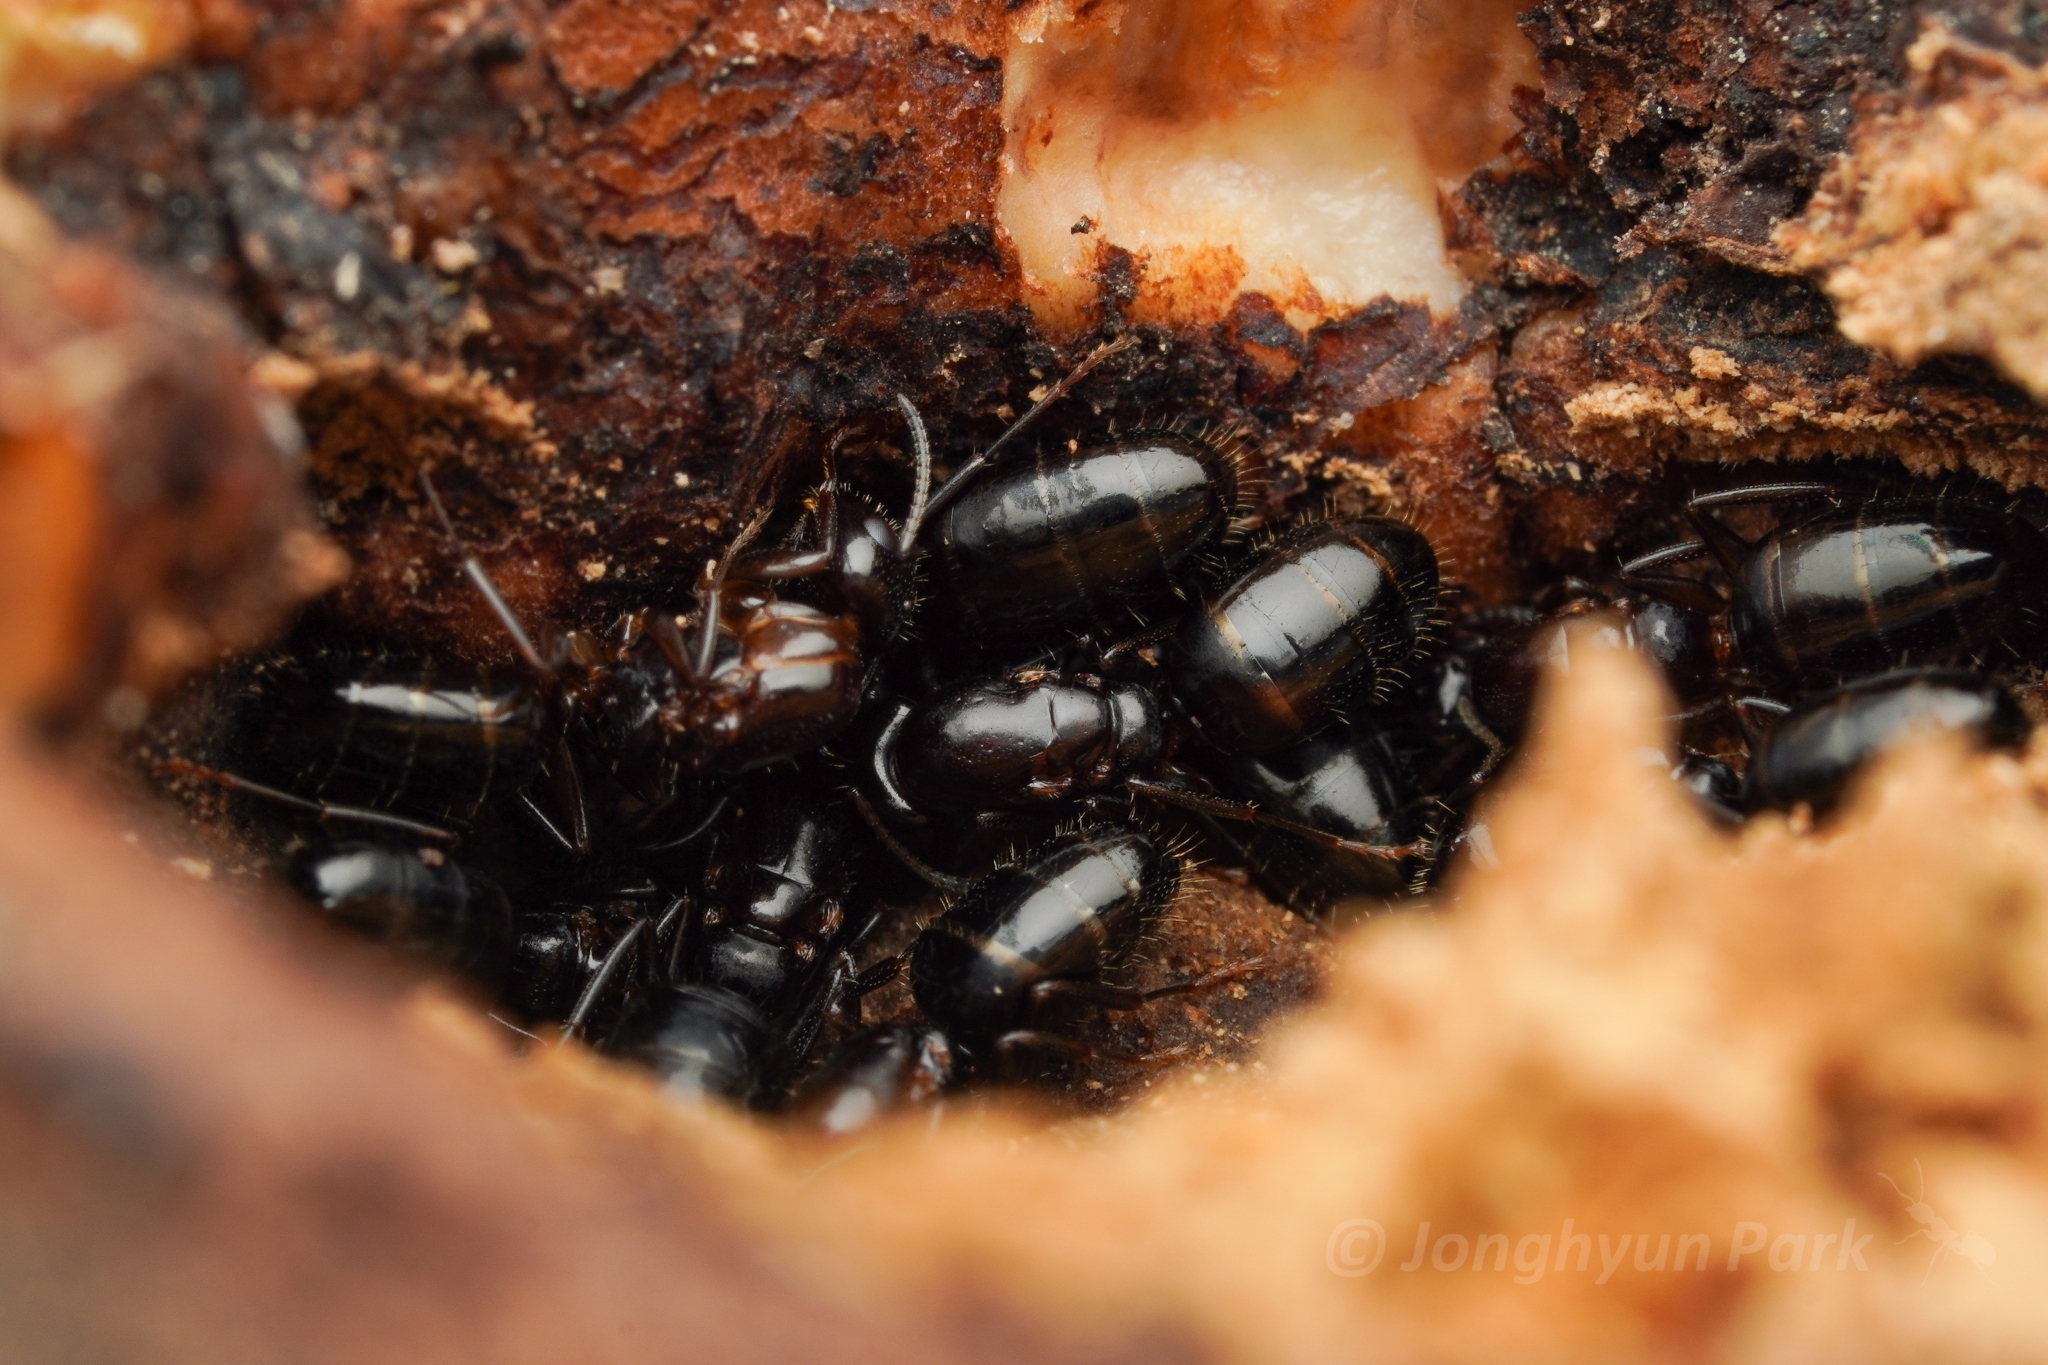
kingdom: Animalia
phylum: Arthropoda
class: Insecta
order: Hymenoptera
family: Formicidae
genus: Camponotus
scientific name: Camponotus vitiosus
